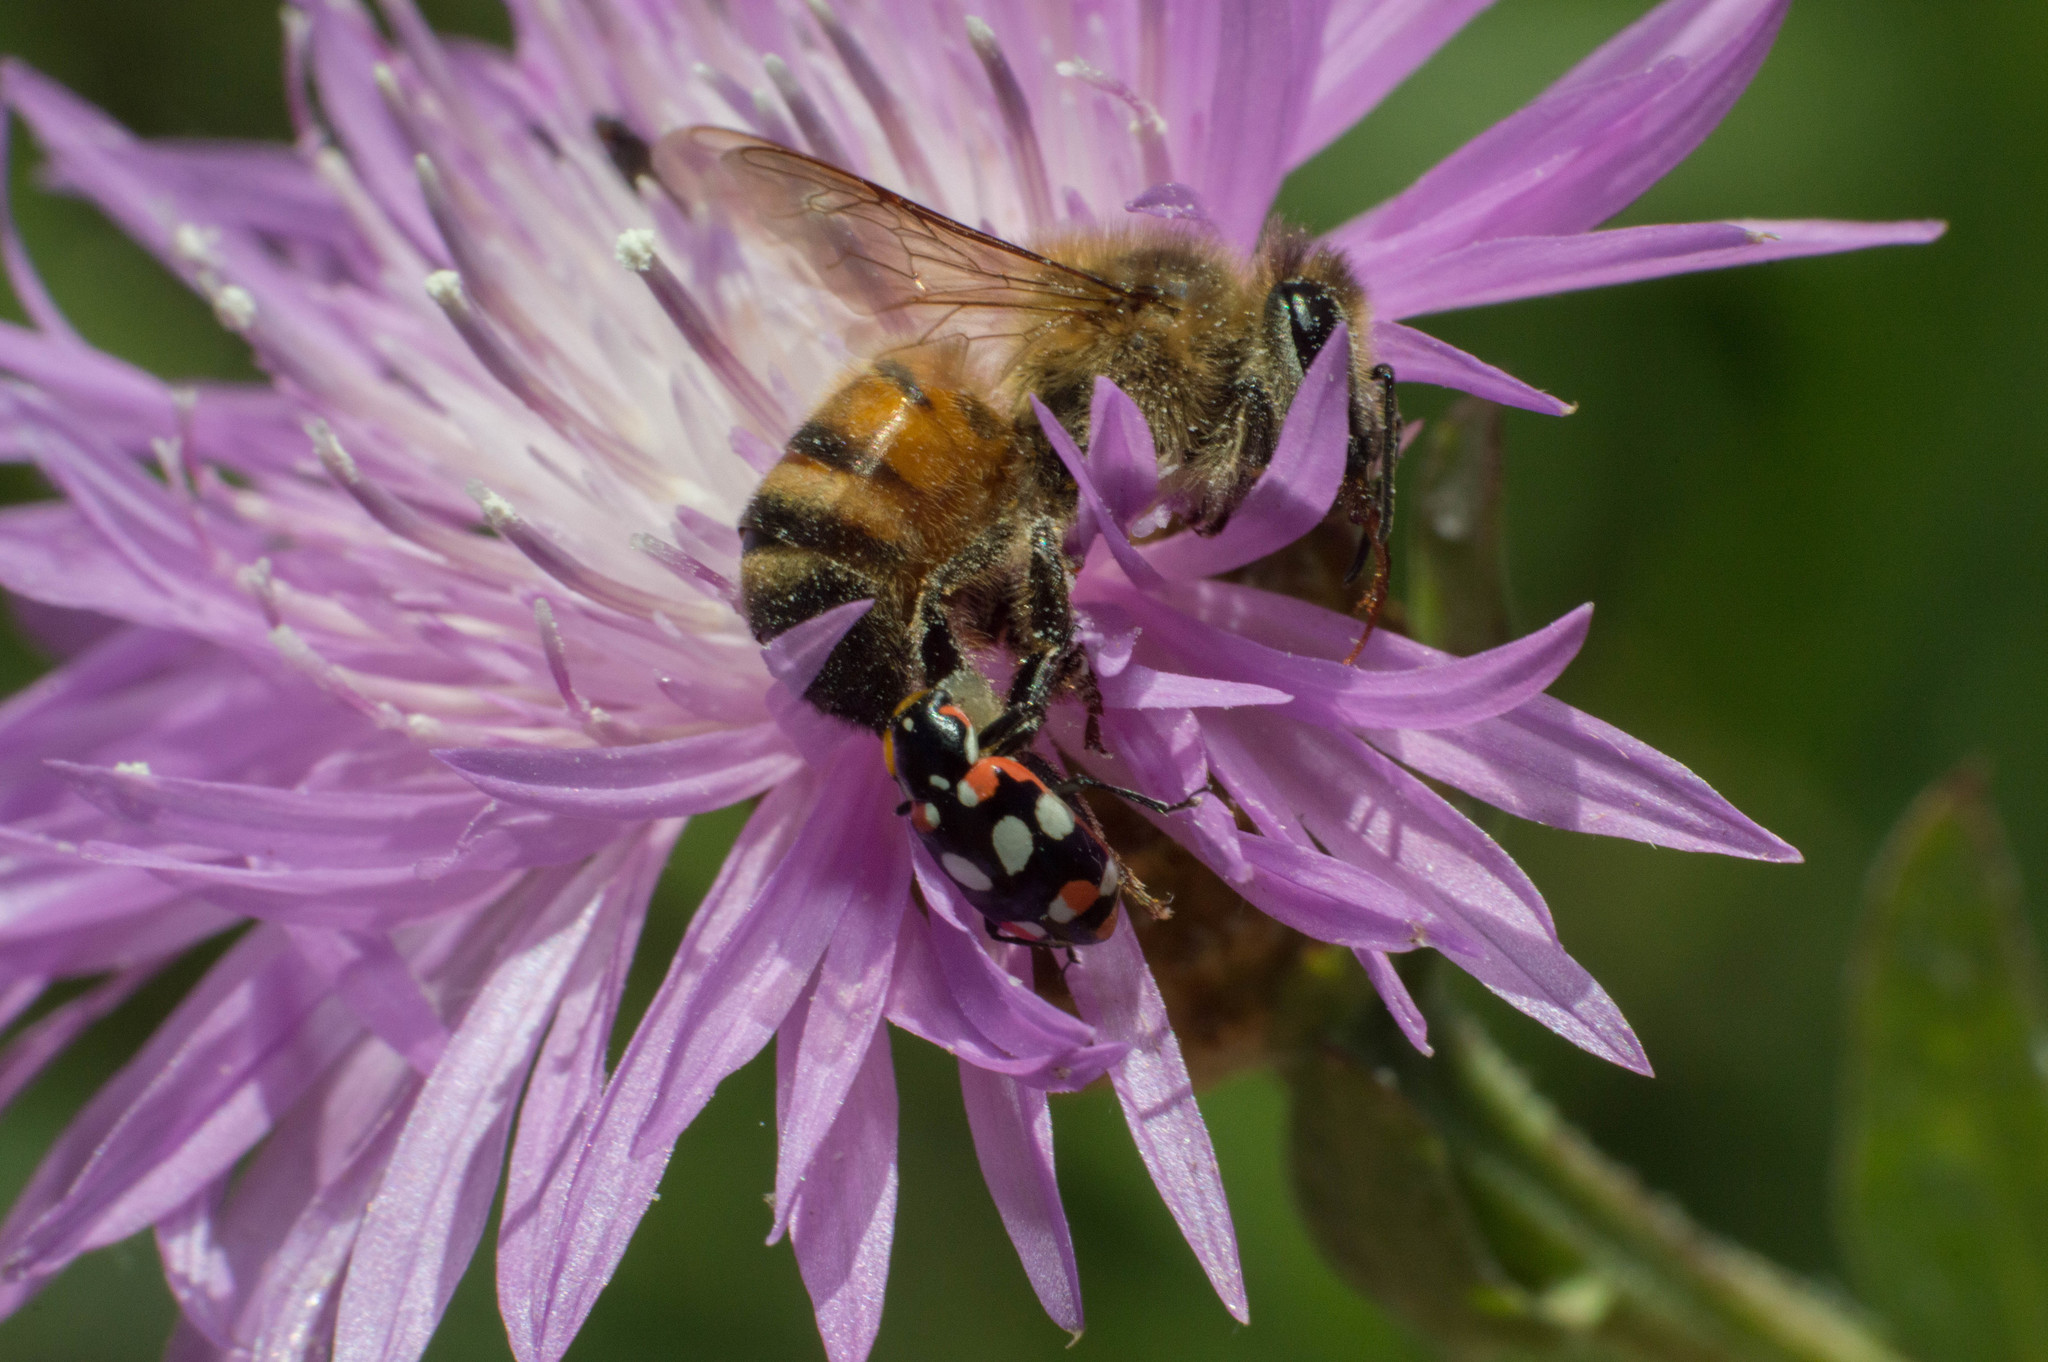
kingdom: Animalia
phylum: Arthropoda
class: Insecta
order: Coleoptera
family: Coccinellidae
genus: Eriopis
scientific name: Eriopis connexa
